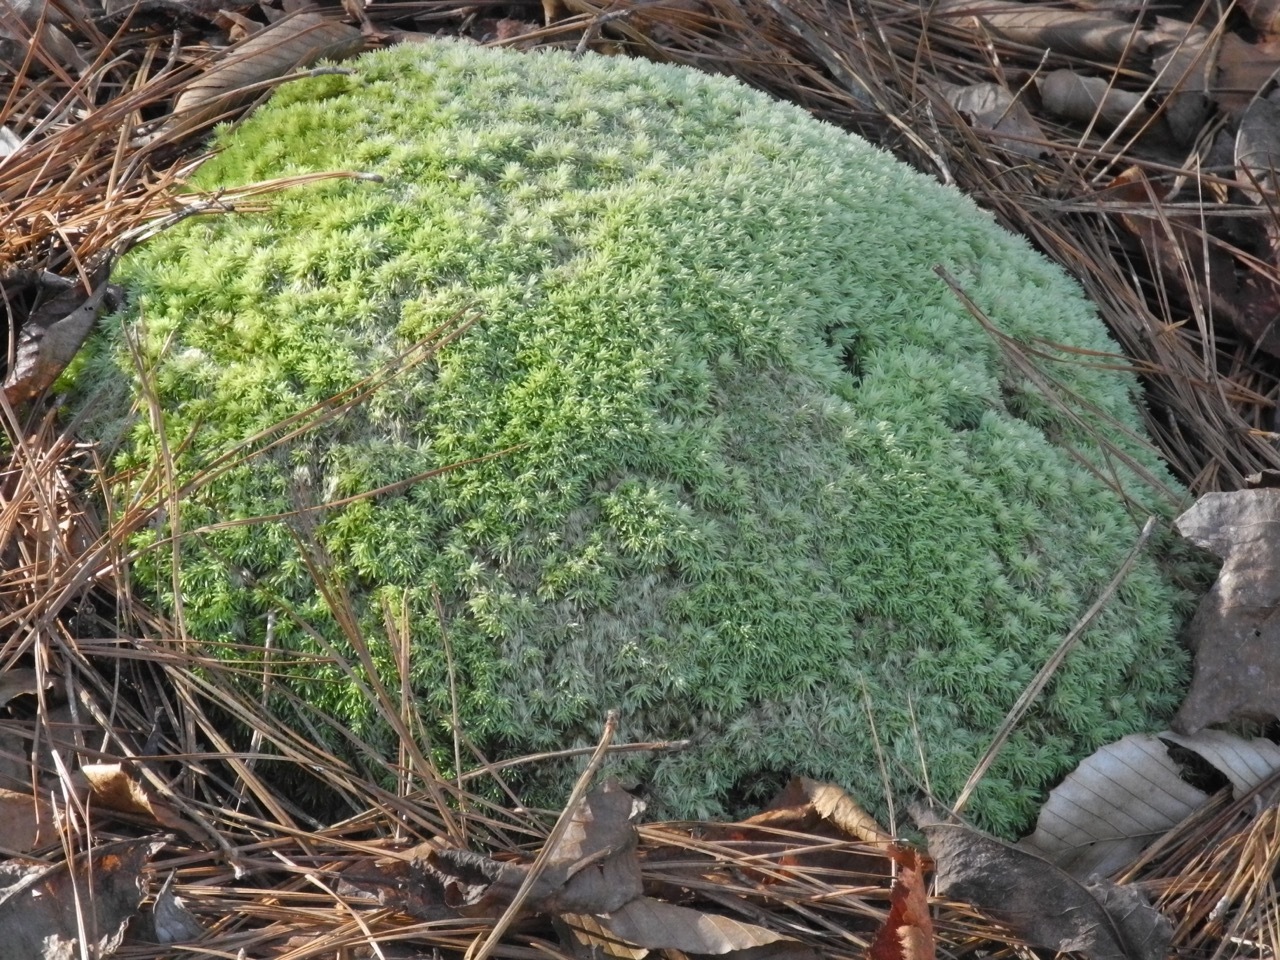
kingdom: Plantae
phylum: Bryophyta
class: Bryopsida
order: Dicranales
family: Leucobryaceae
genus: Leucobryum
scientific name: Leucobryum albidum
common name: White moss
